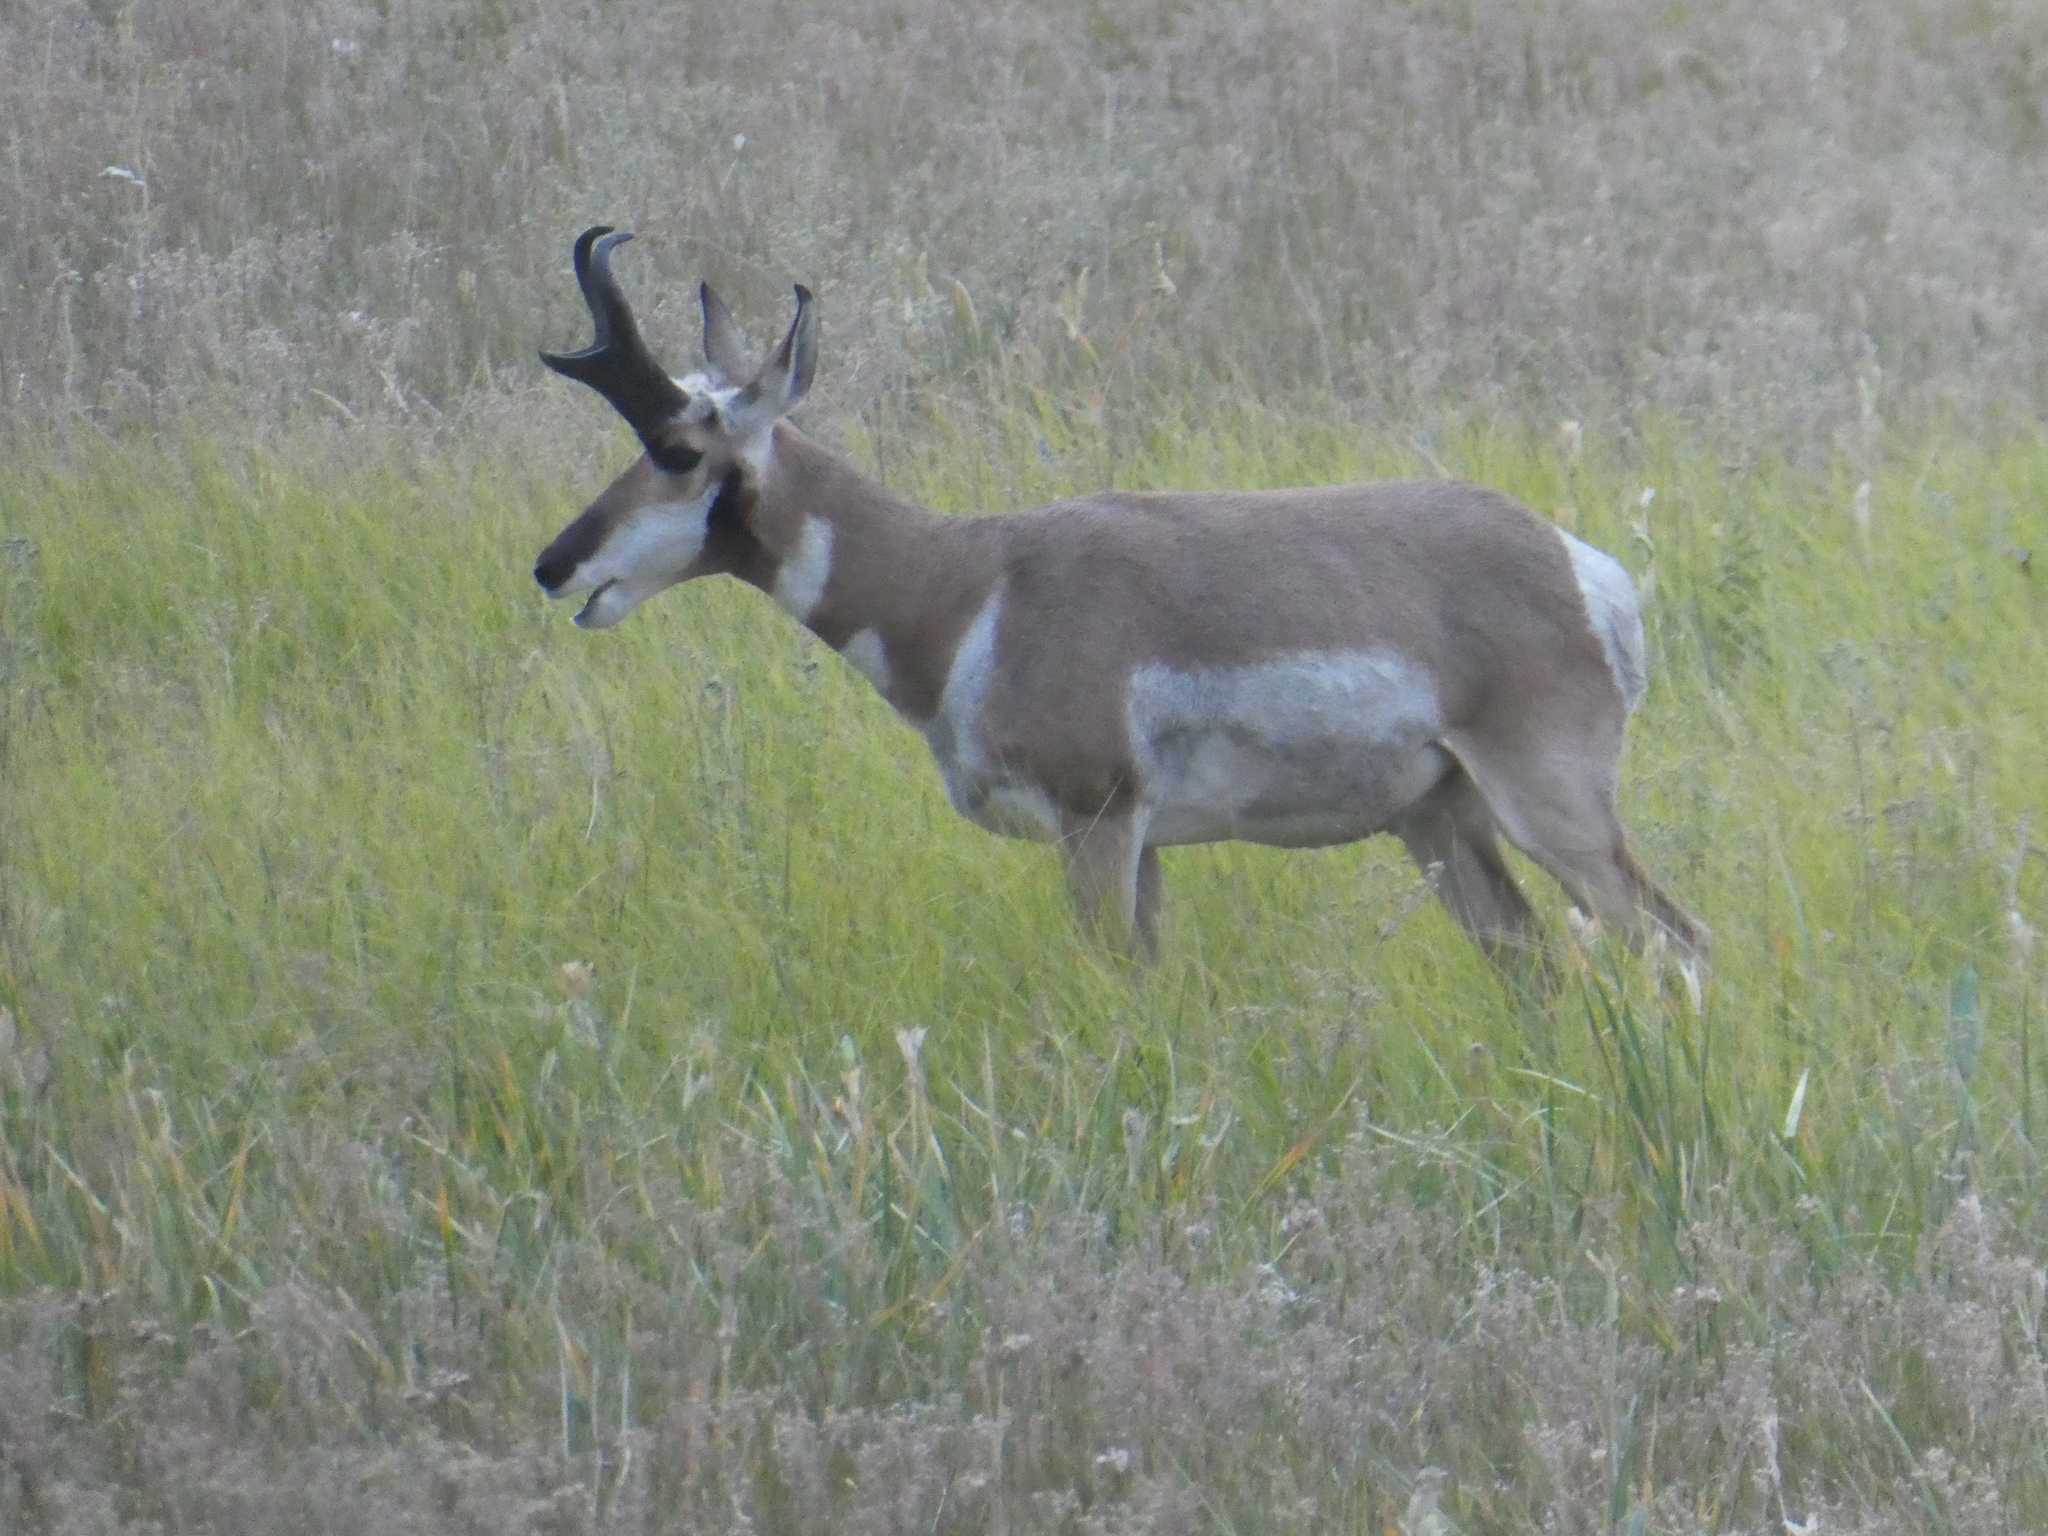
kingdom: Animalia
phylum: Chordata
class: Mammalia
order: Artiodactyla
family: Antilocapridae
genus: Antilocapra
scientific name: Antilocapra americana
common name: Pronghorn
